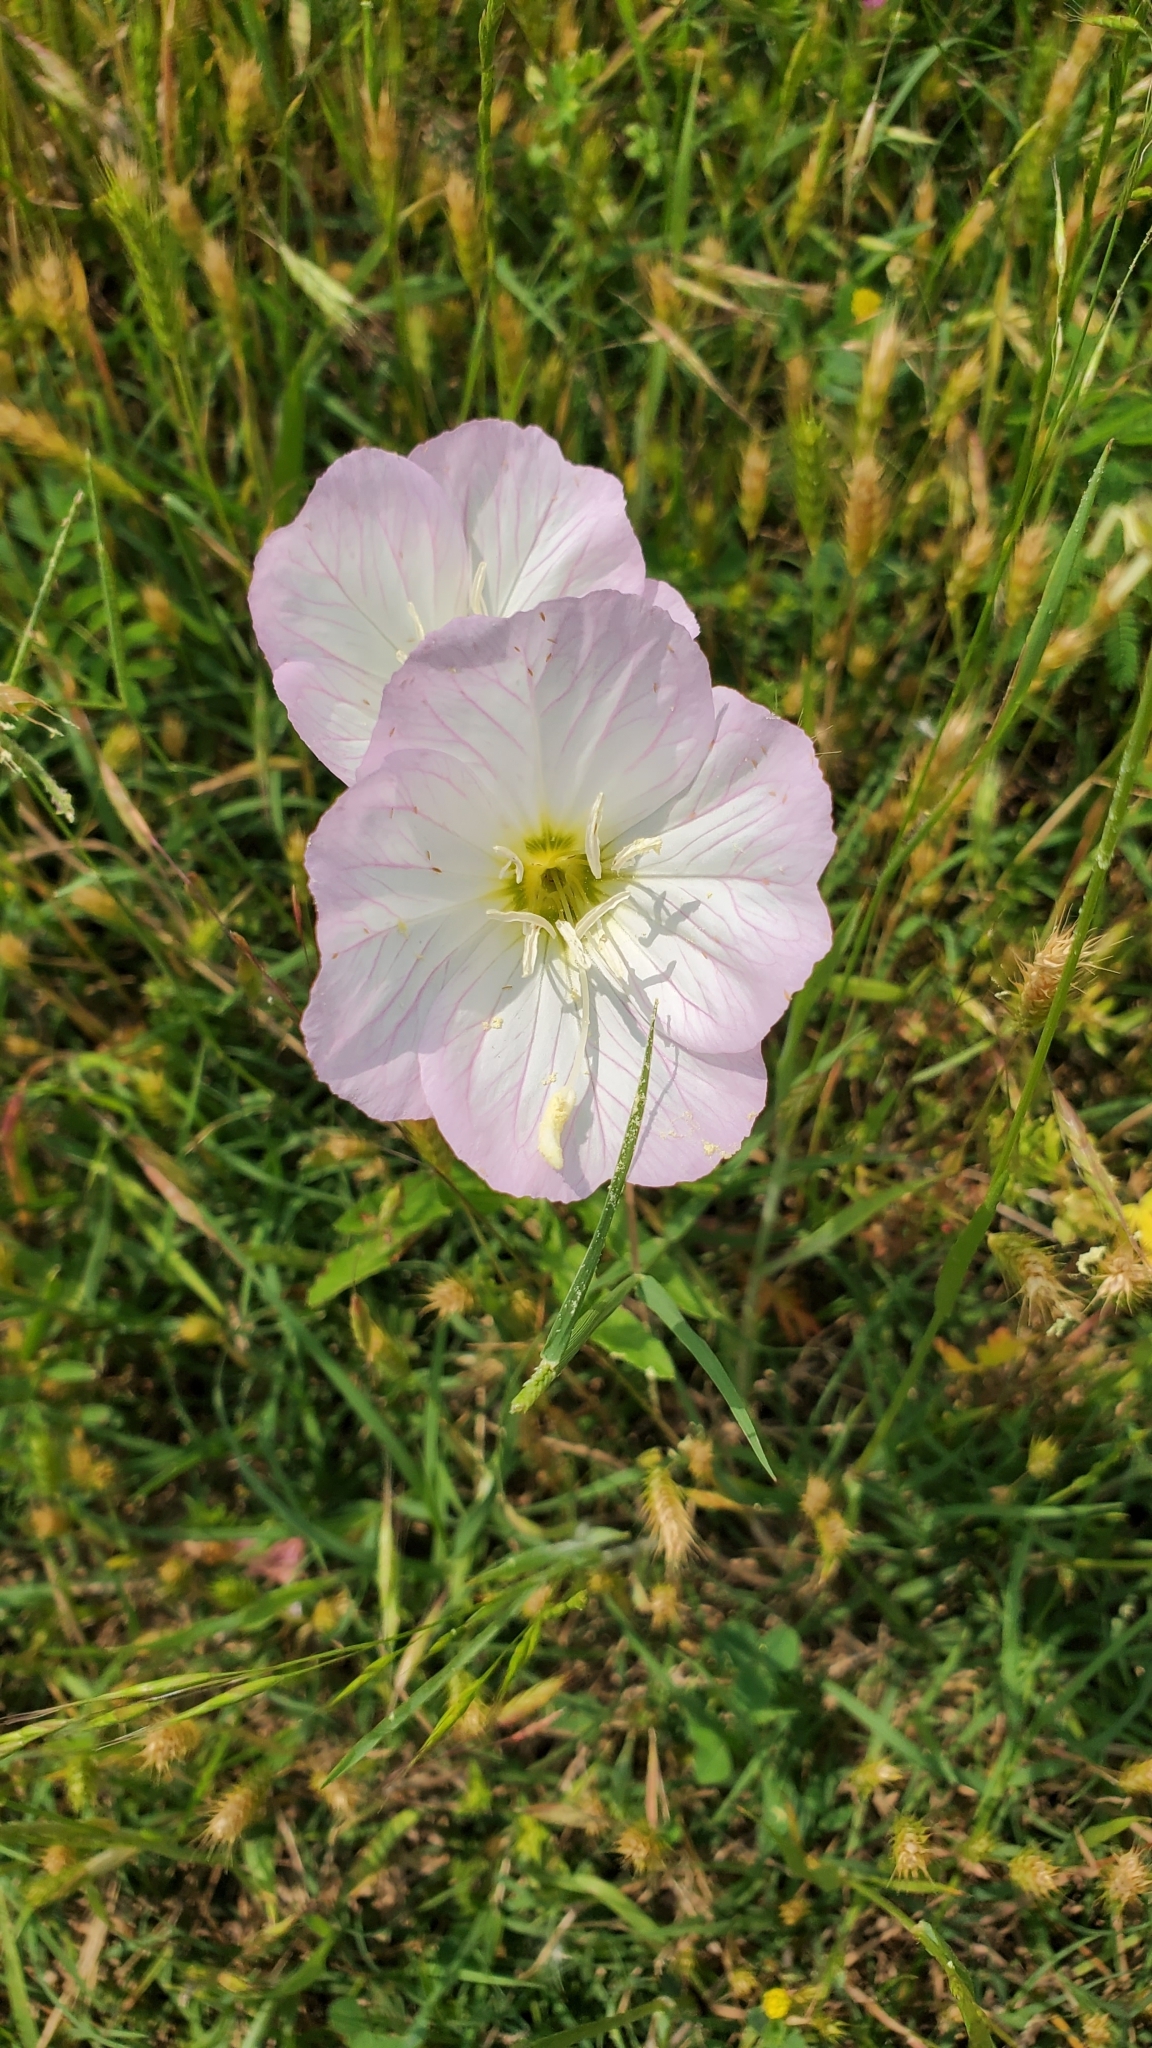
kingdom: Plantae
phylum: Tracheophyta
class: Magnoliopsida
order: Myrtales
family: Onagraceae
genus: Oenothera
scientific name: Oenothera speciosa
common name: White evening-primrose
